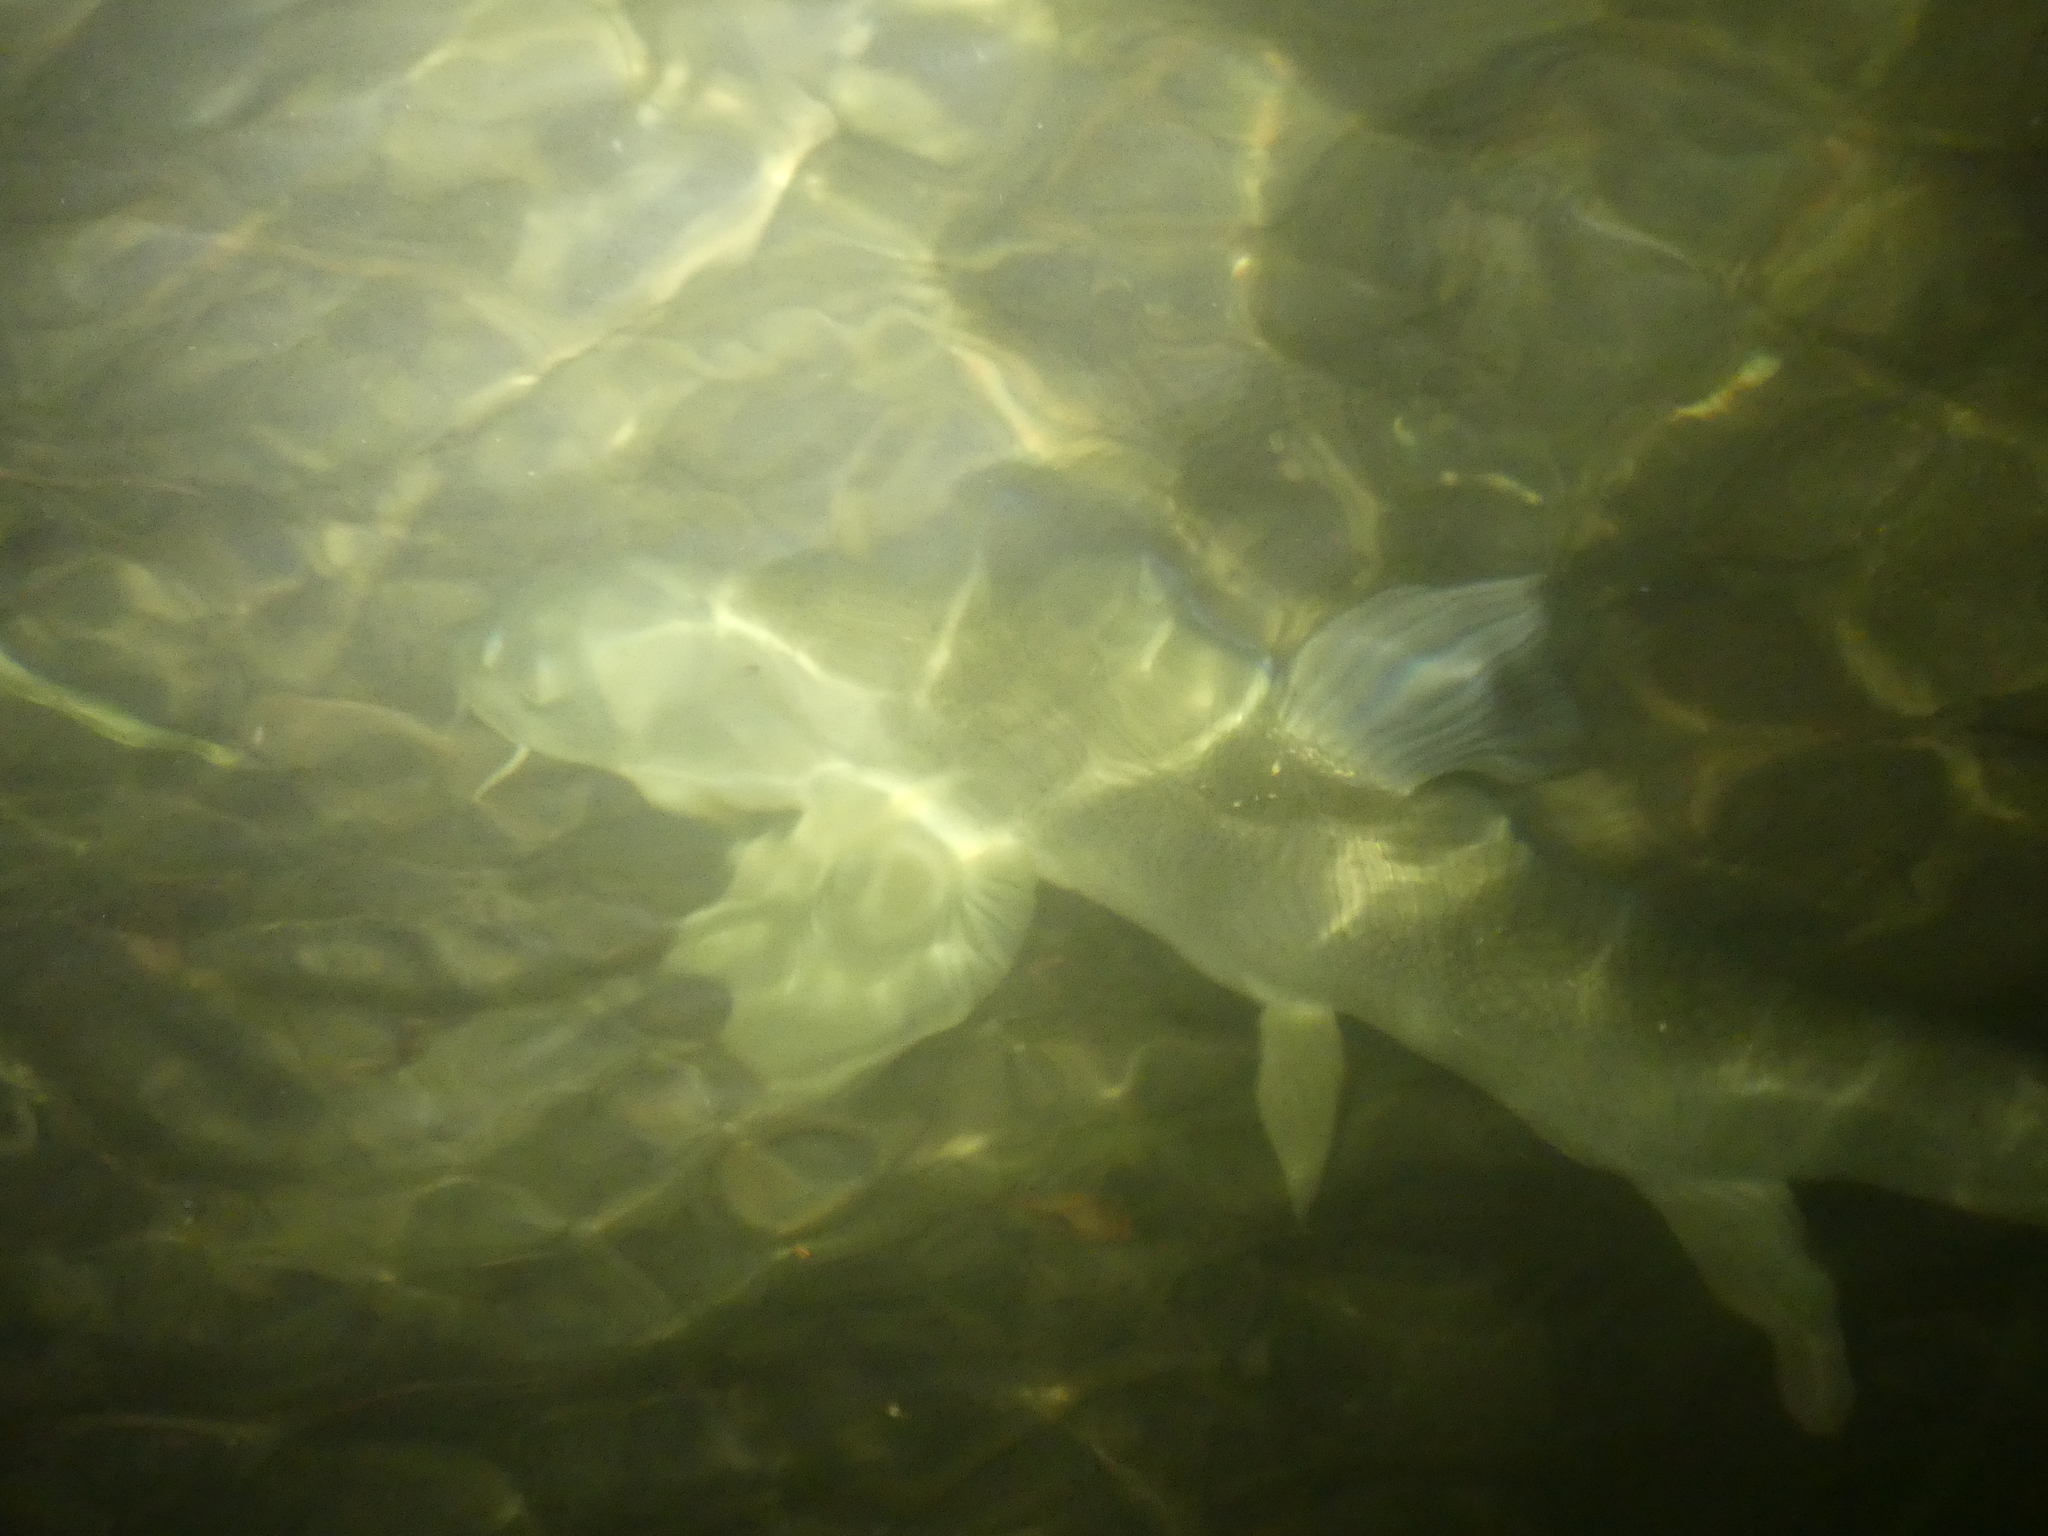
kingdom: Animalia
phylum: Chordata
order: Cypriniformes
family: Cyprinidae
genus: Barbus
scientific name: Barbus barbus
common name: Barbel
